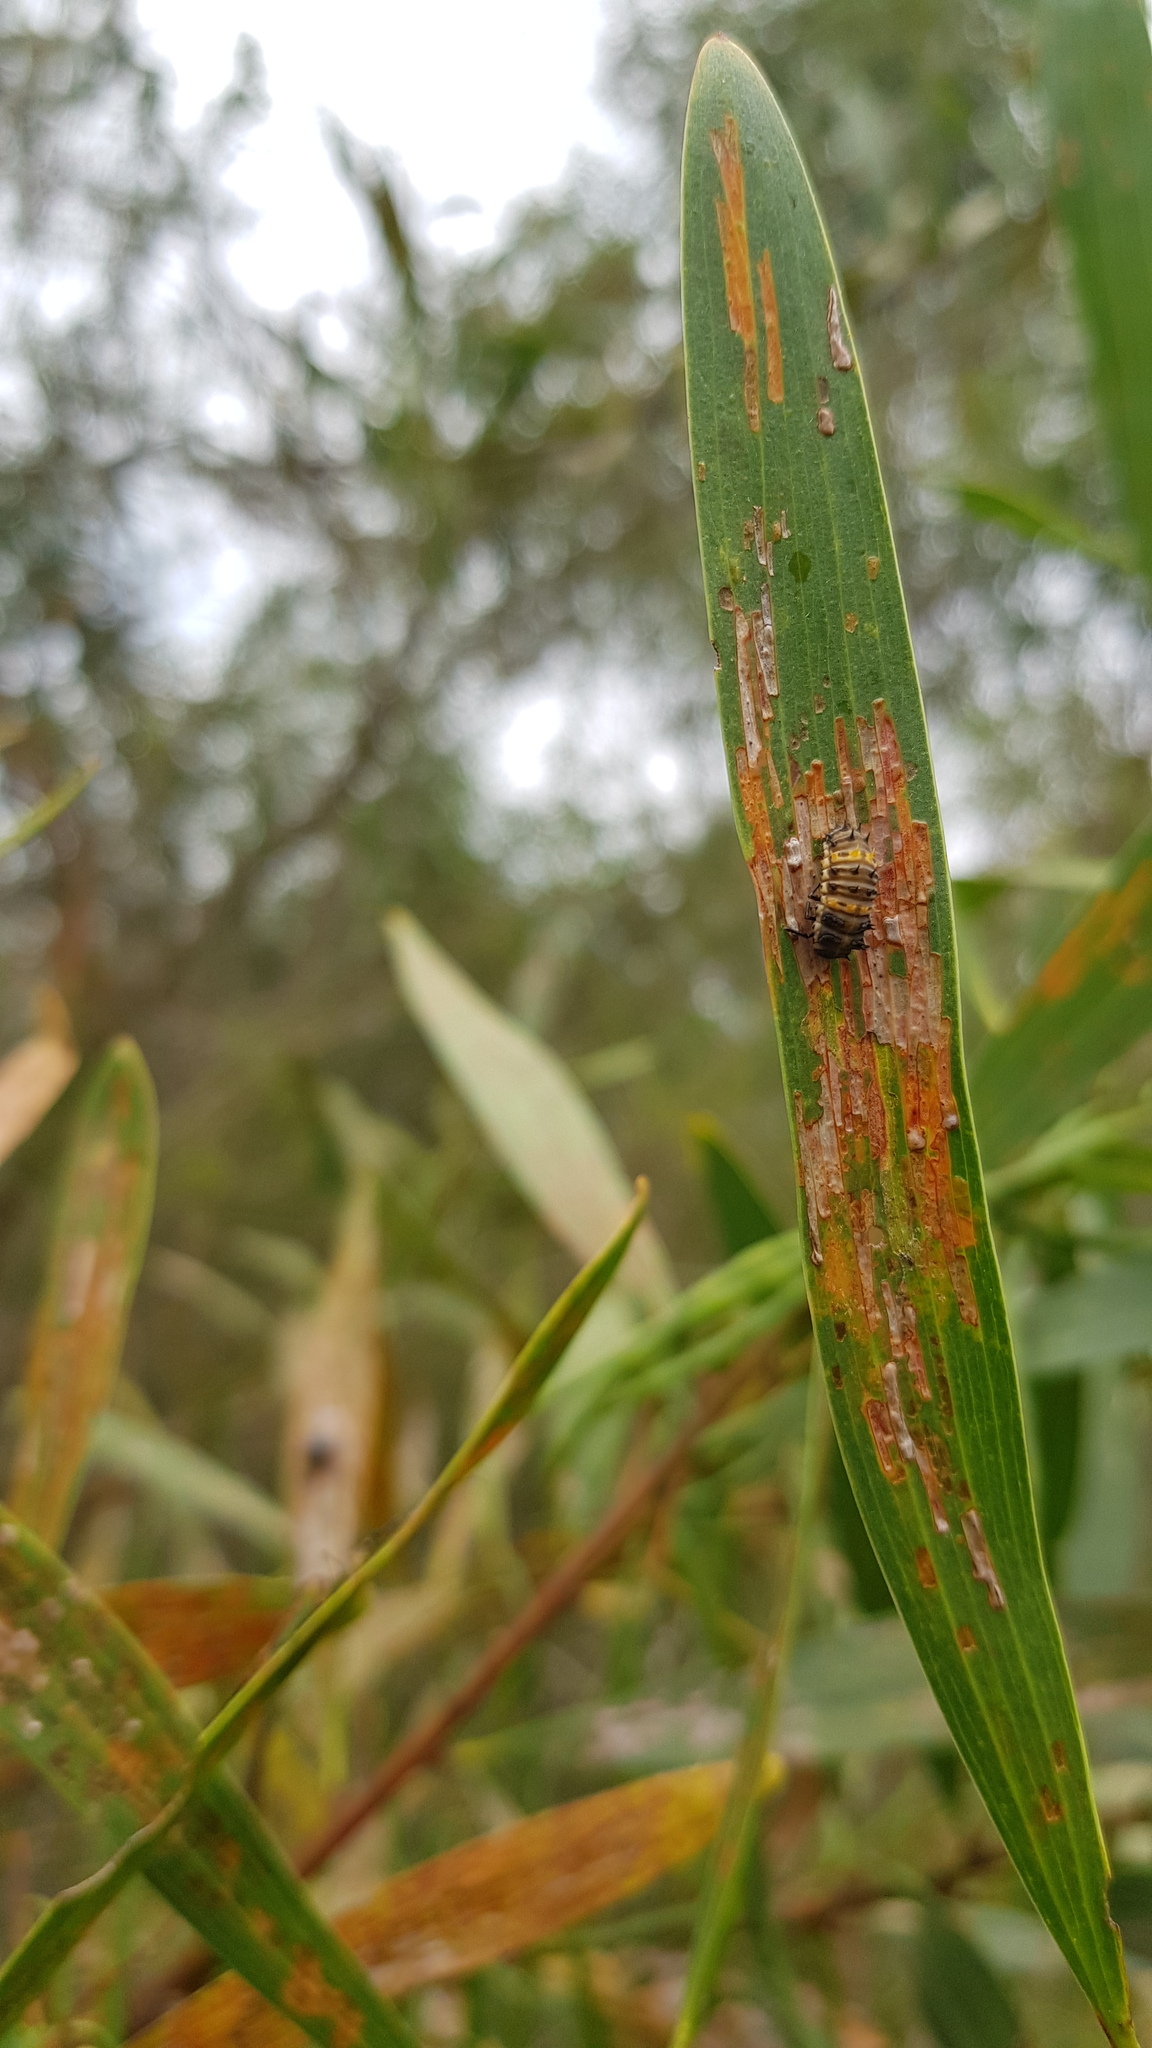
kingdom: Animalia
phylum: Arthropoda
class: Insecta
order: Coleoptera
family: Coccinellidae
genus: Harmonia
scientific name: Harmonia conformis
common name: Common spotted ladybird beetle
